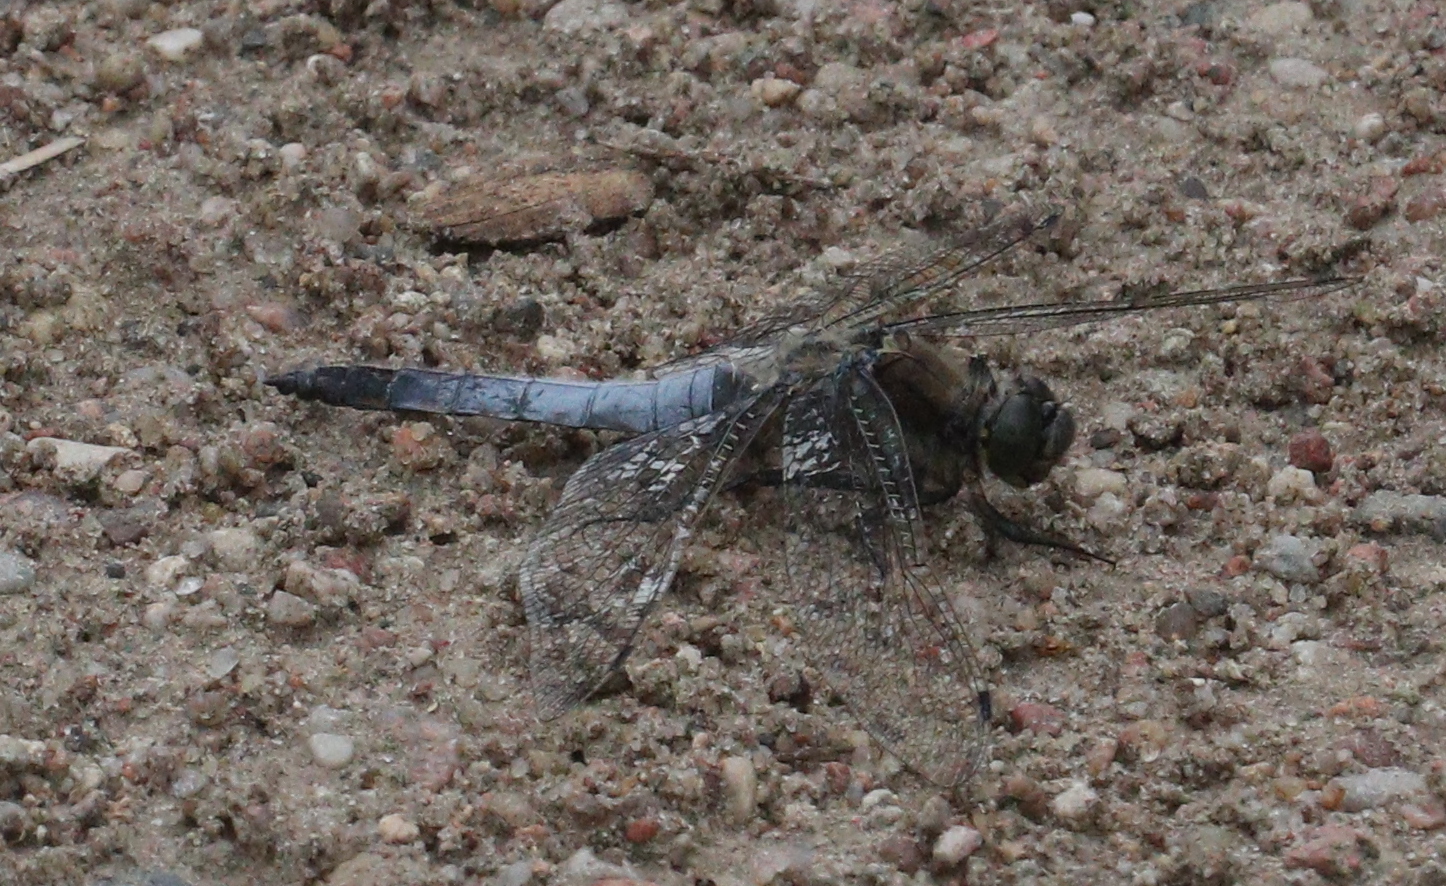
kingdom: Animalia
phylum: Arthropoda
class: Insecta
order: Odonata
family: Libellulidae
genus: Orthetrum
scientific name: Orthetrum cancellatum
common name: Black-tailed skimmer
